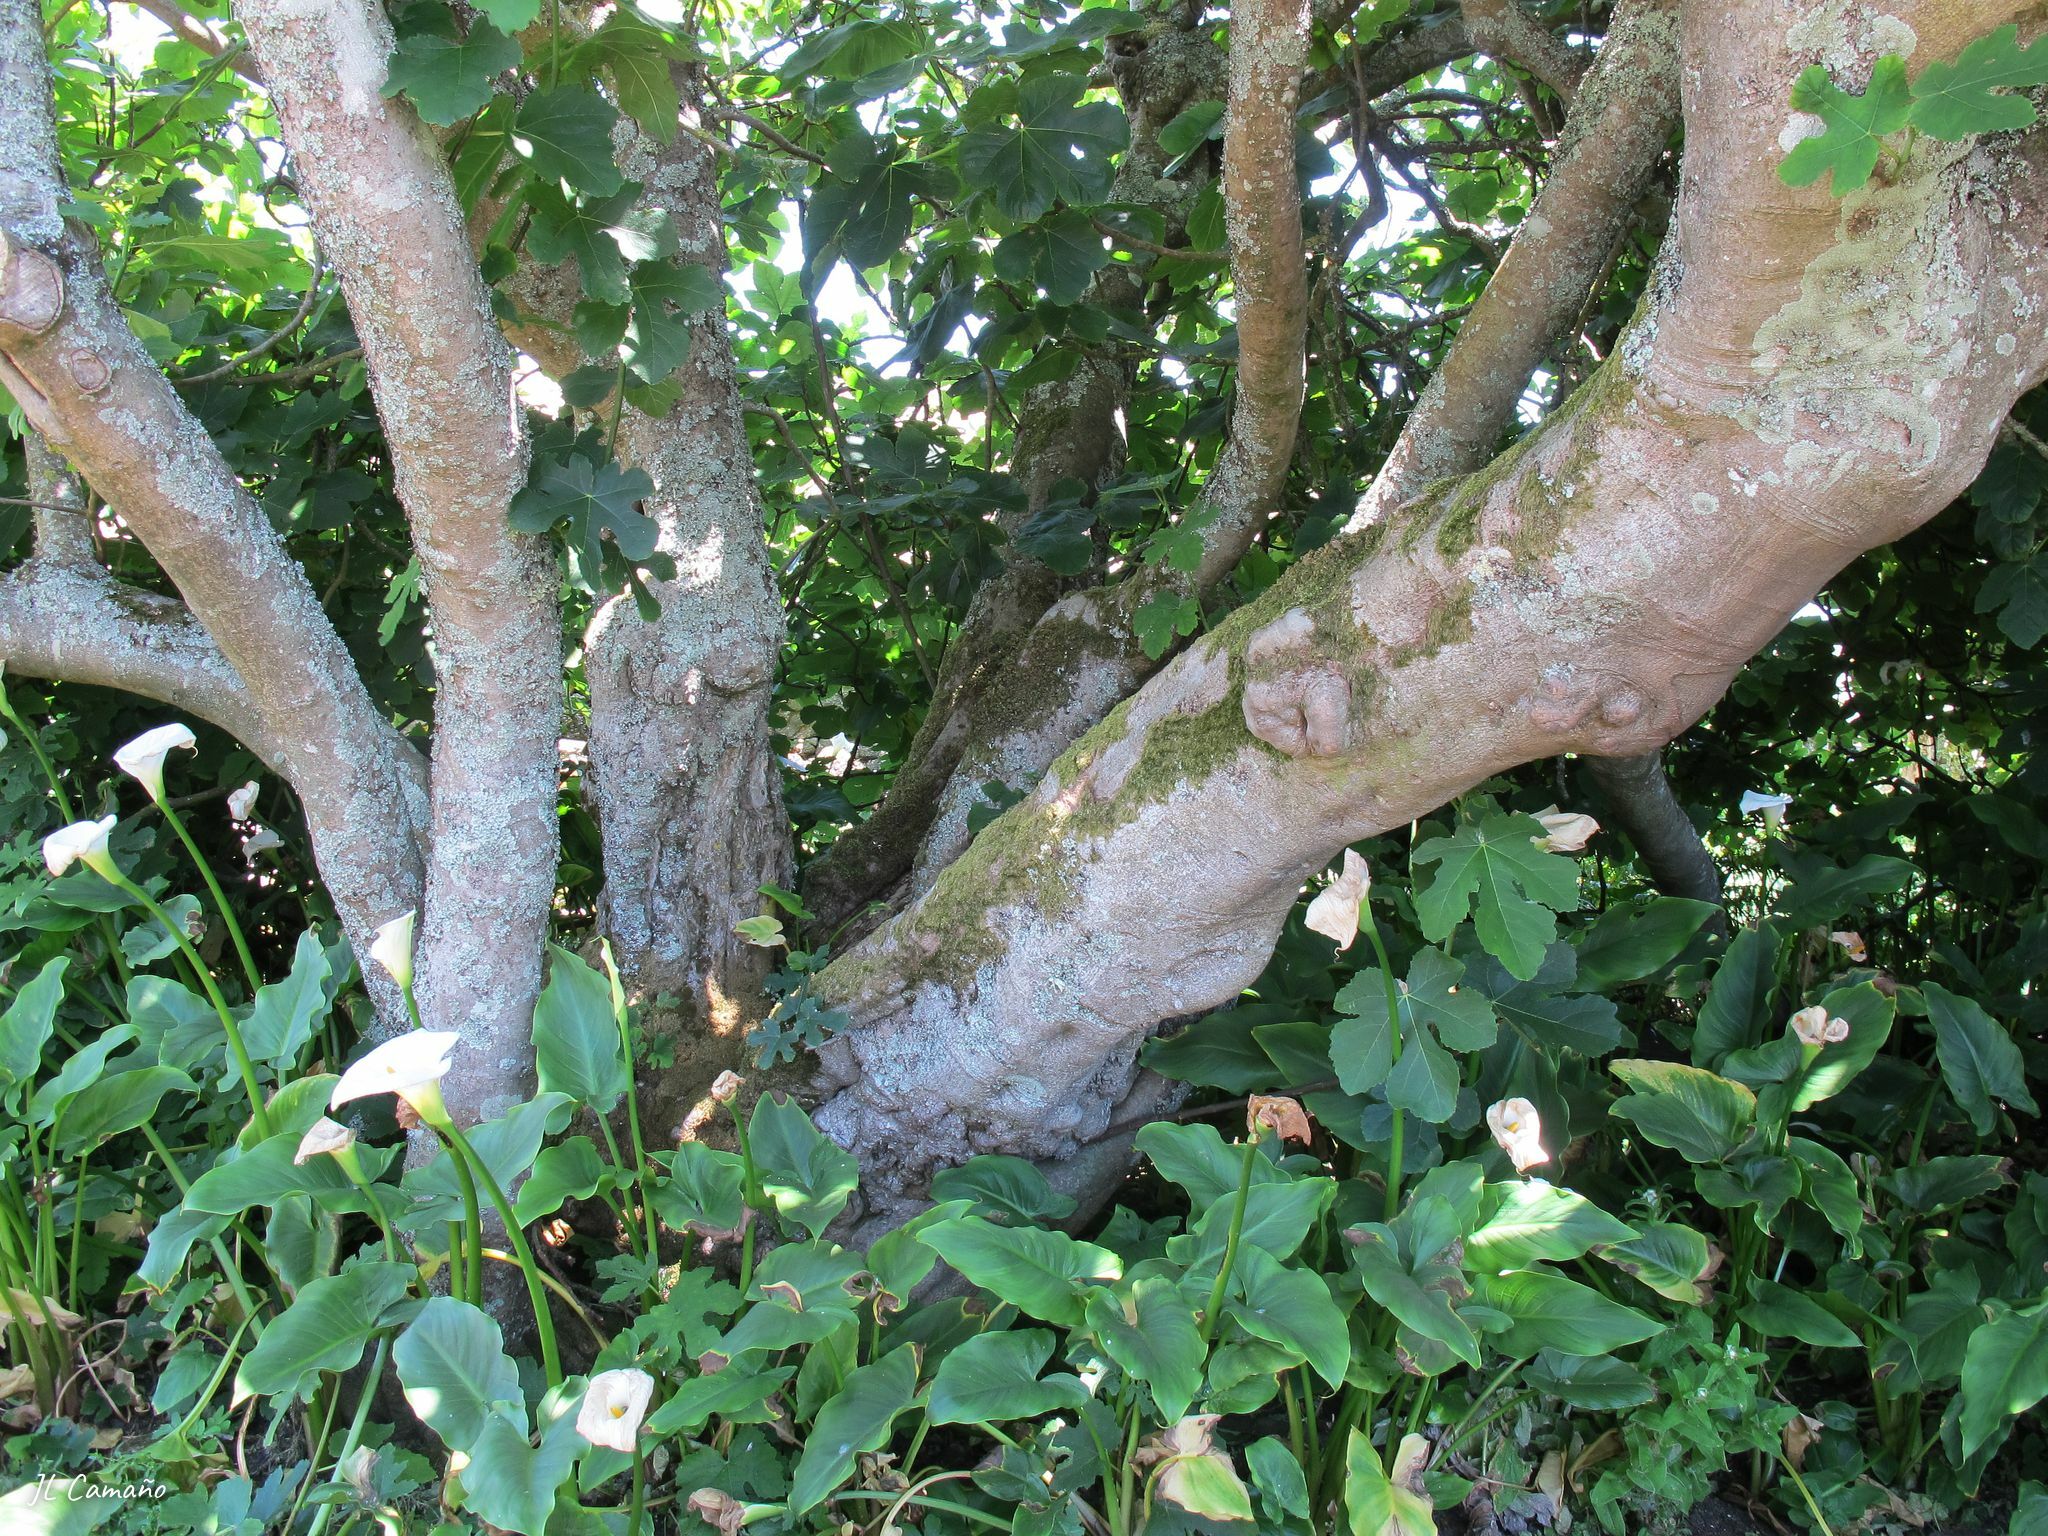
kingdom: Plantae
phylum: Bryophyta
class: Bryopsida
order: Hypnales
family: Lembophyllaceae
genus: Nogopterium
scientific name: Nogopterium gracile
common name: Bird's-foot wing-moss
